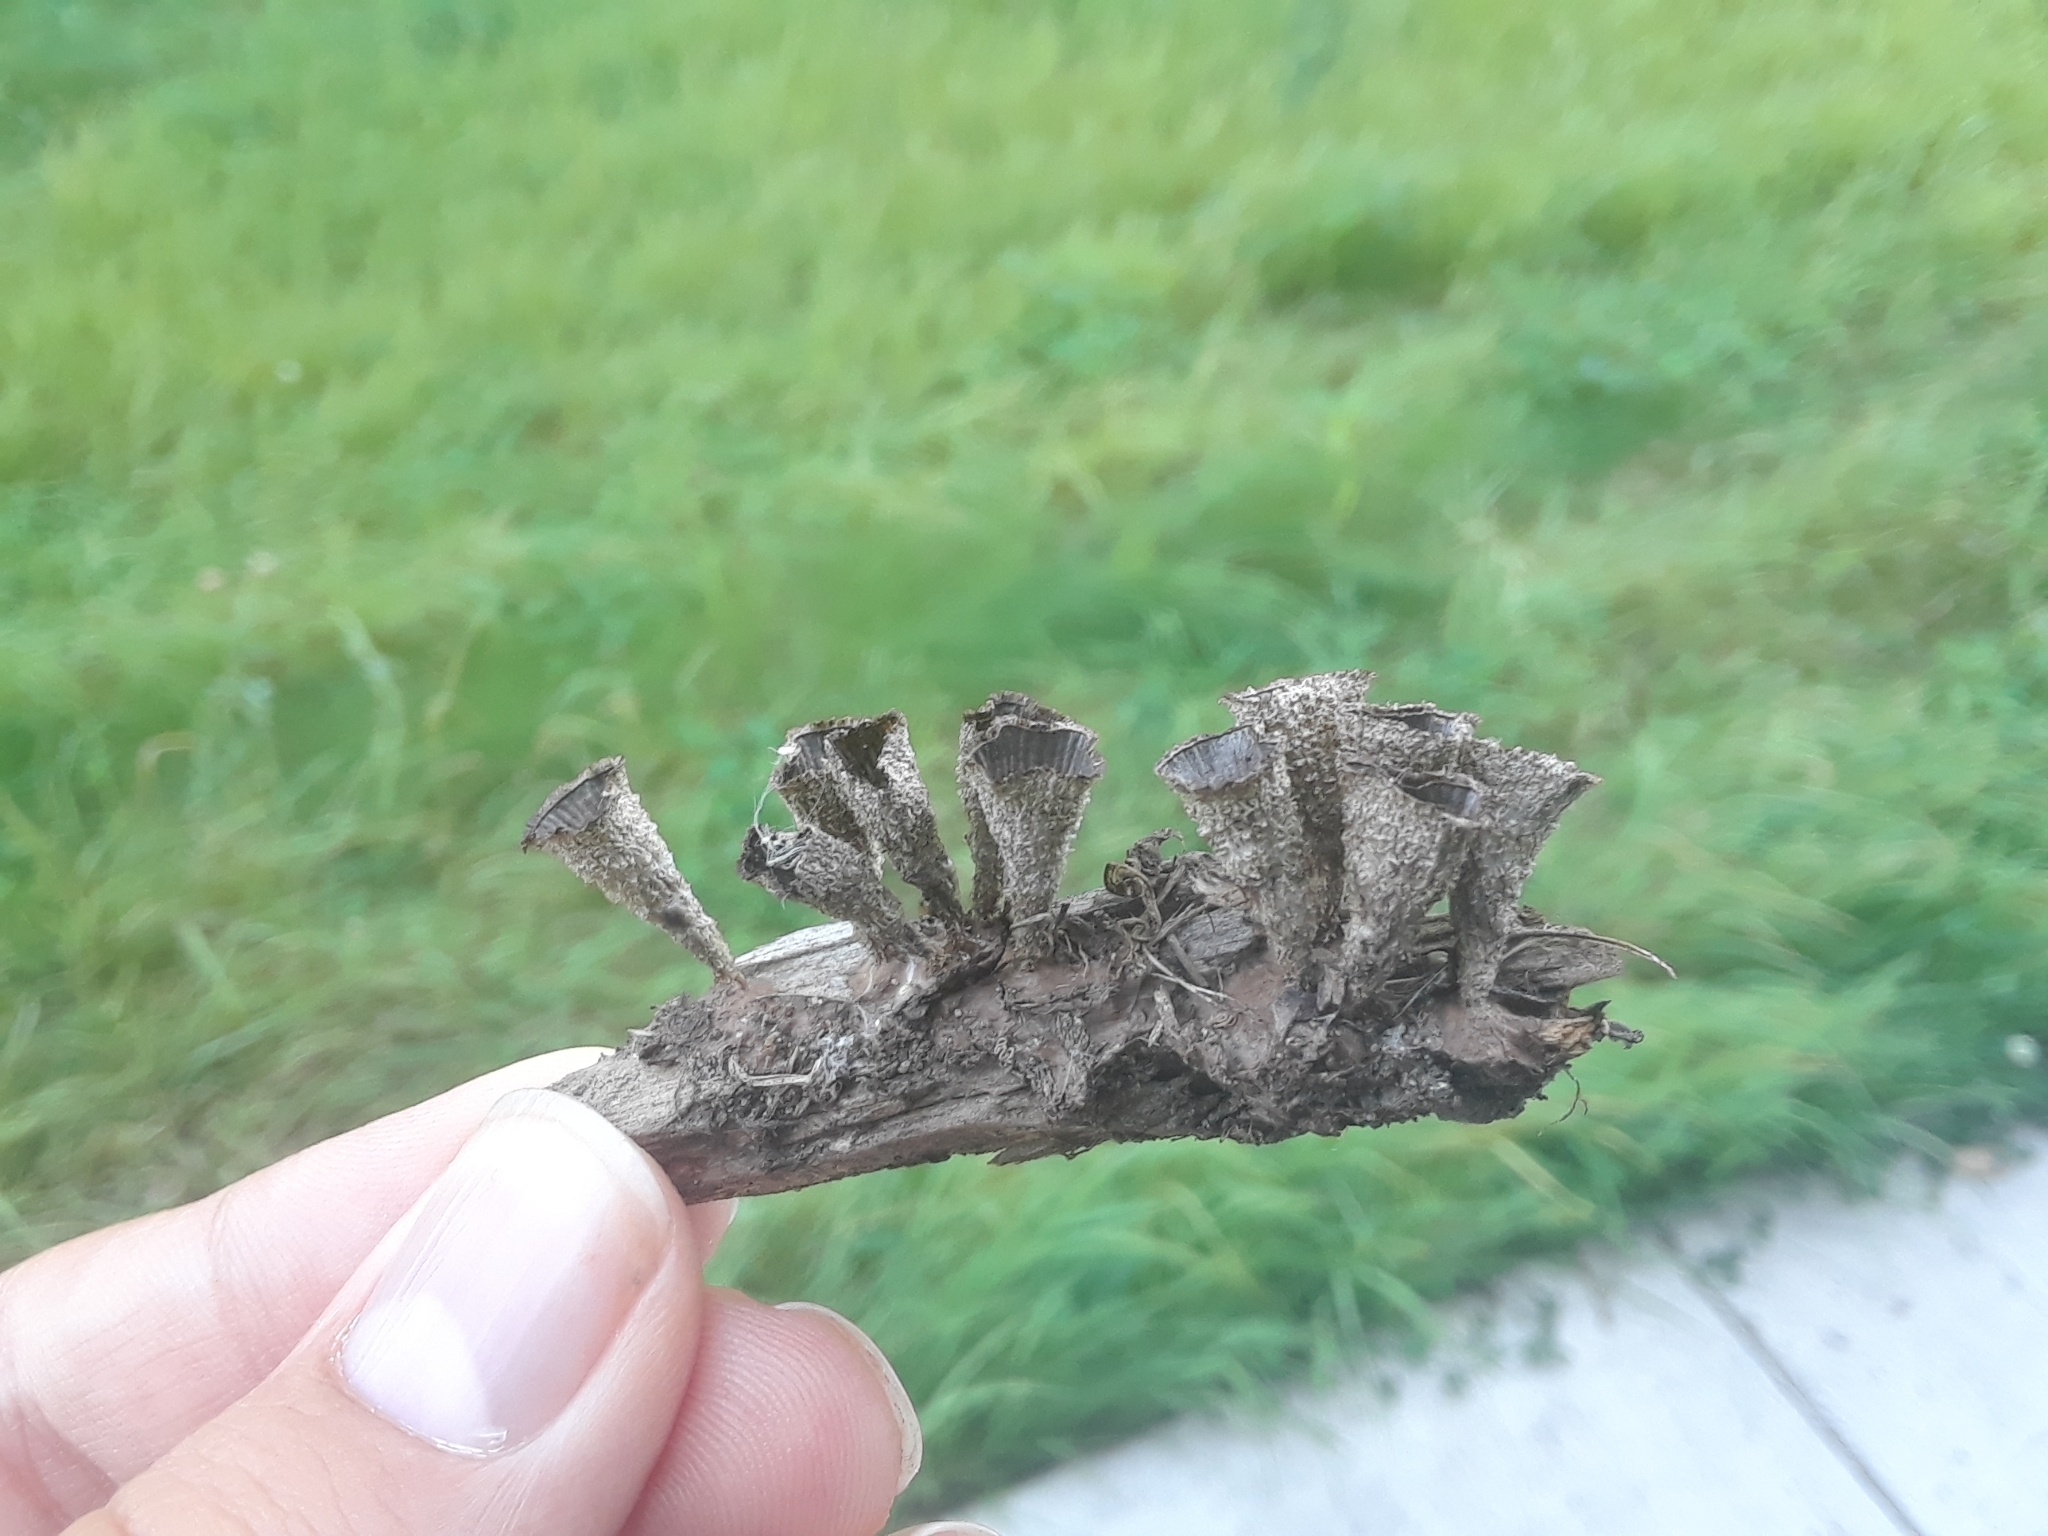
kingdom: Fungi
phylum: Basidiomycota
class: Agaricomycetes
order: Agaricales
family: Agaricaceae
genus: Cyathus
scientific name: Cyathus striatus
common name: Fluted bird's nest
